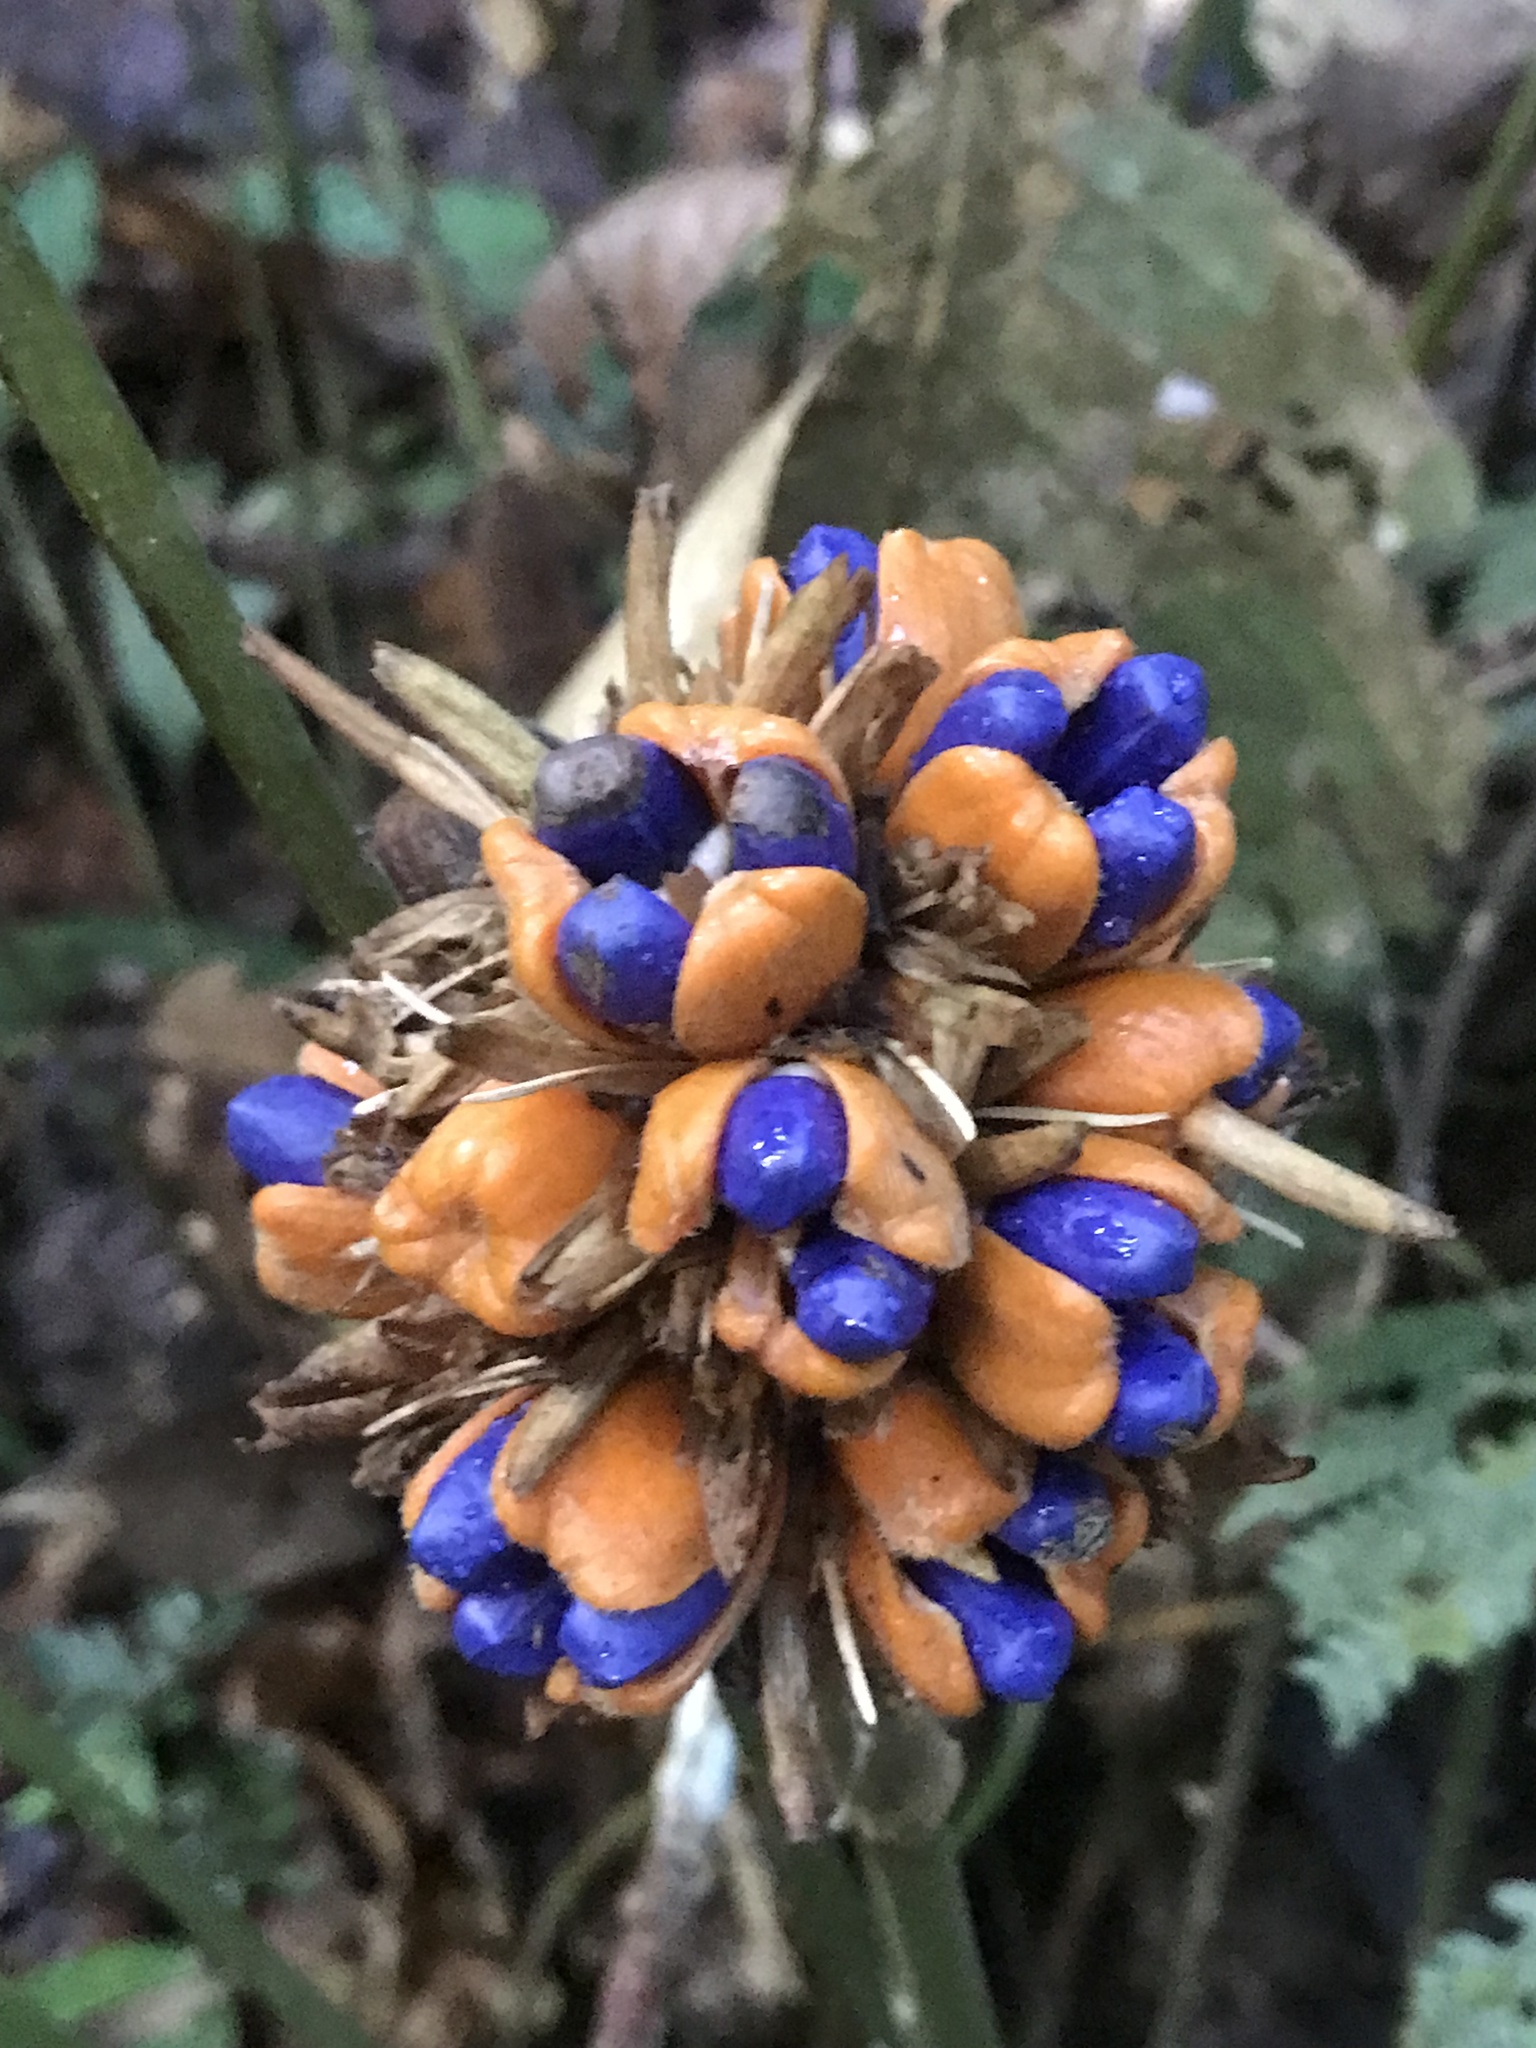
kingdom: Plantae
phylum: Tracheophyta
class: Liliopsida
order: Zingiberales
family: Marantaceae
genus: Goeppertia
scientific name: Goeppertia inocephala
